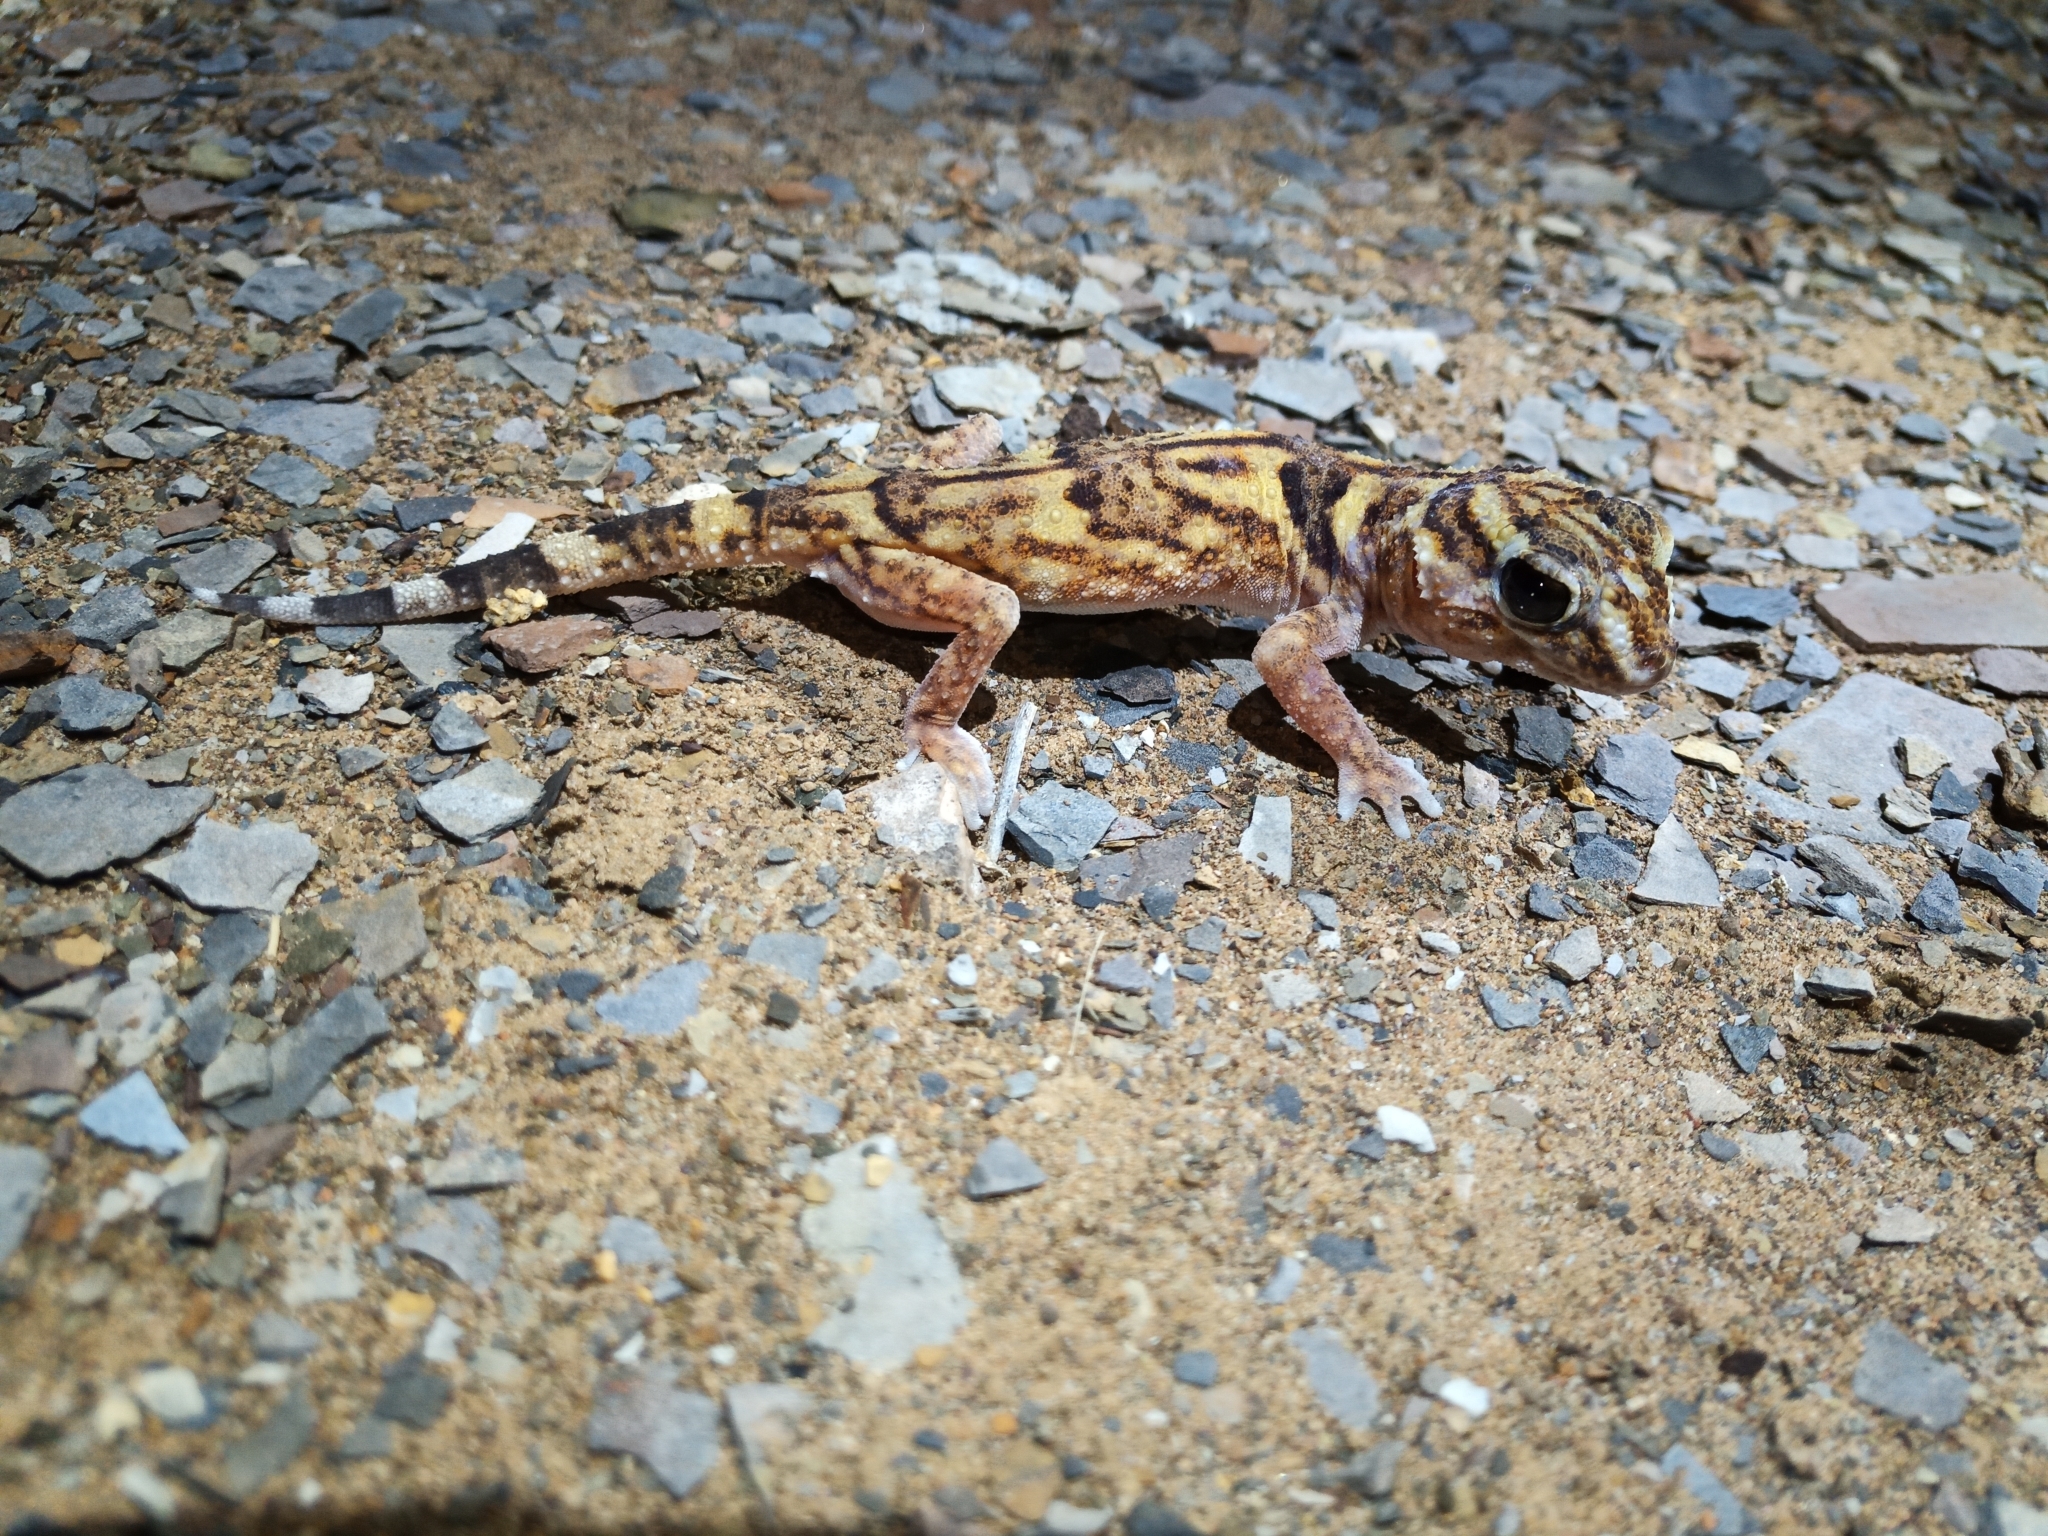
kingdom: Animalia
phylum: Chordata
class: Squamata
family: Gekkonidae
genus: Chondrodactylus
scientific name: Chondrodactylus angulifer
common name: Common giant ground gecko
